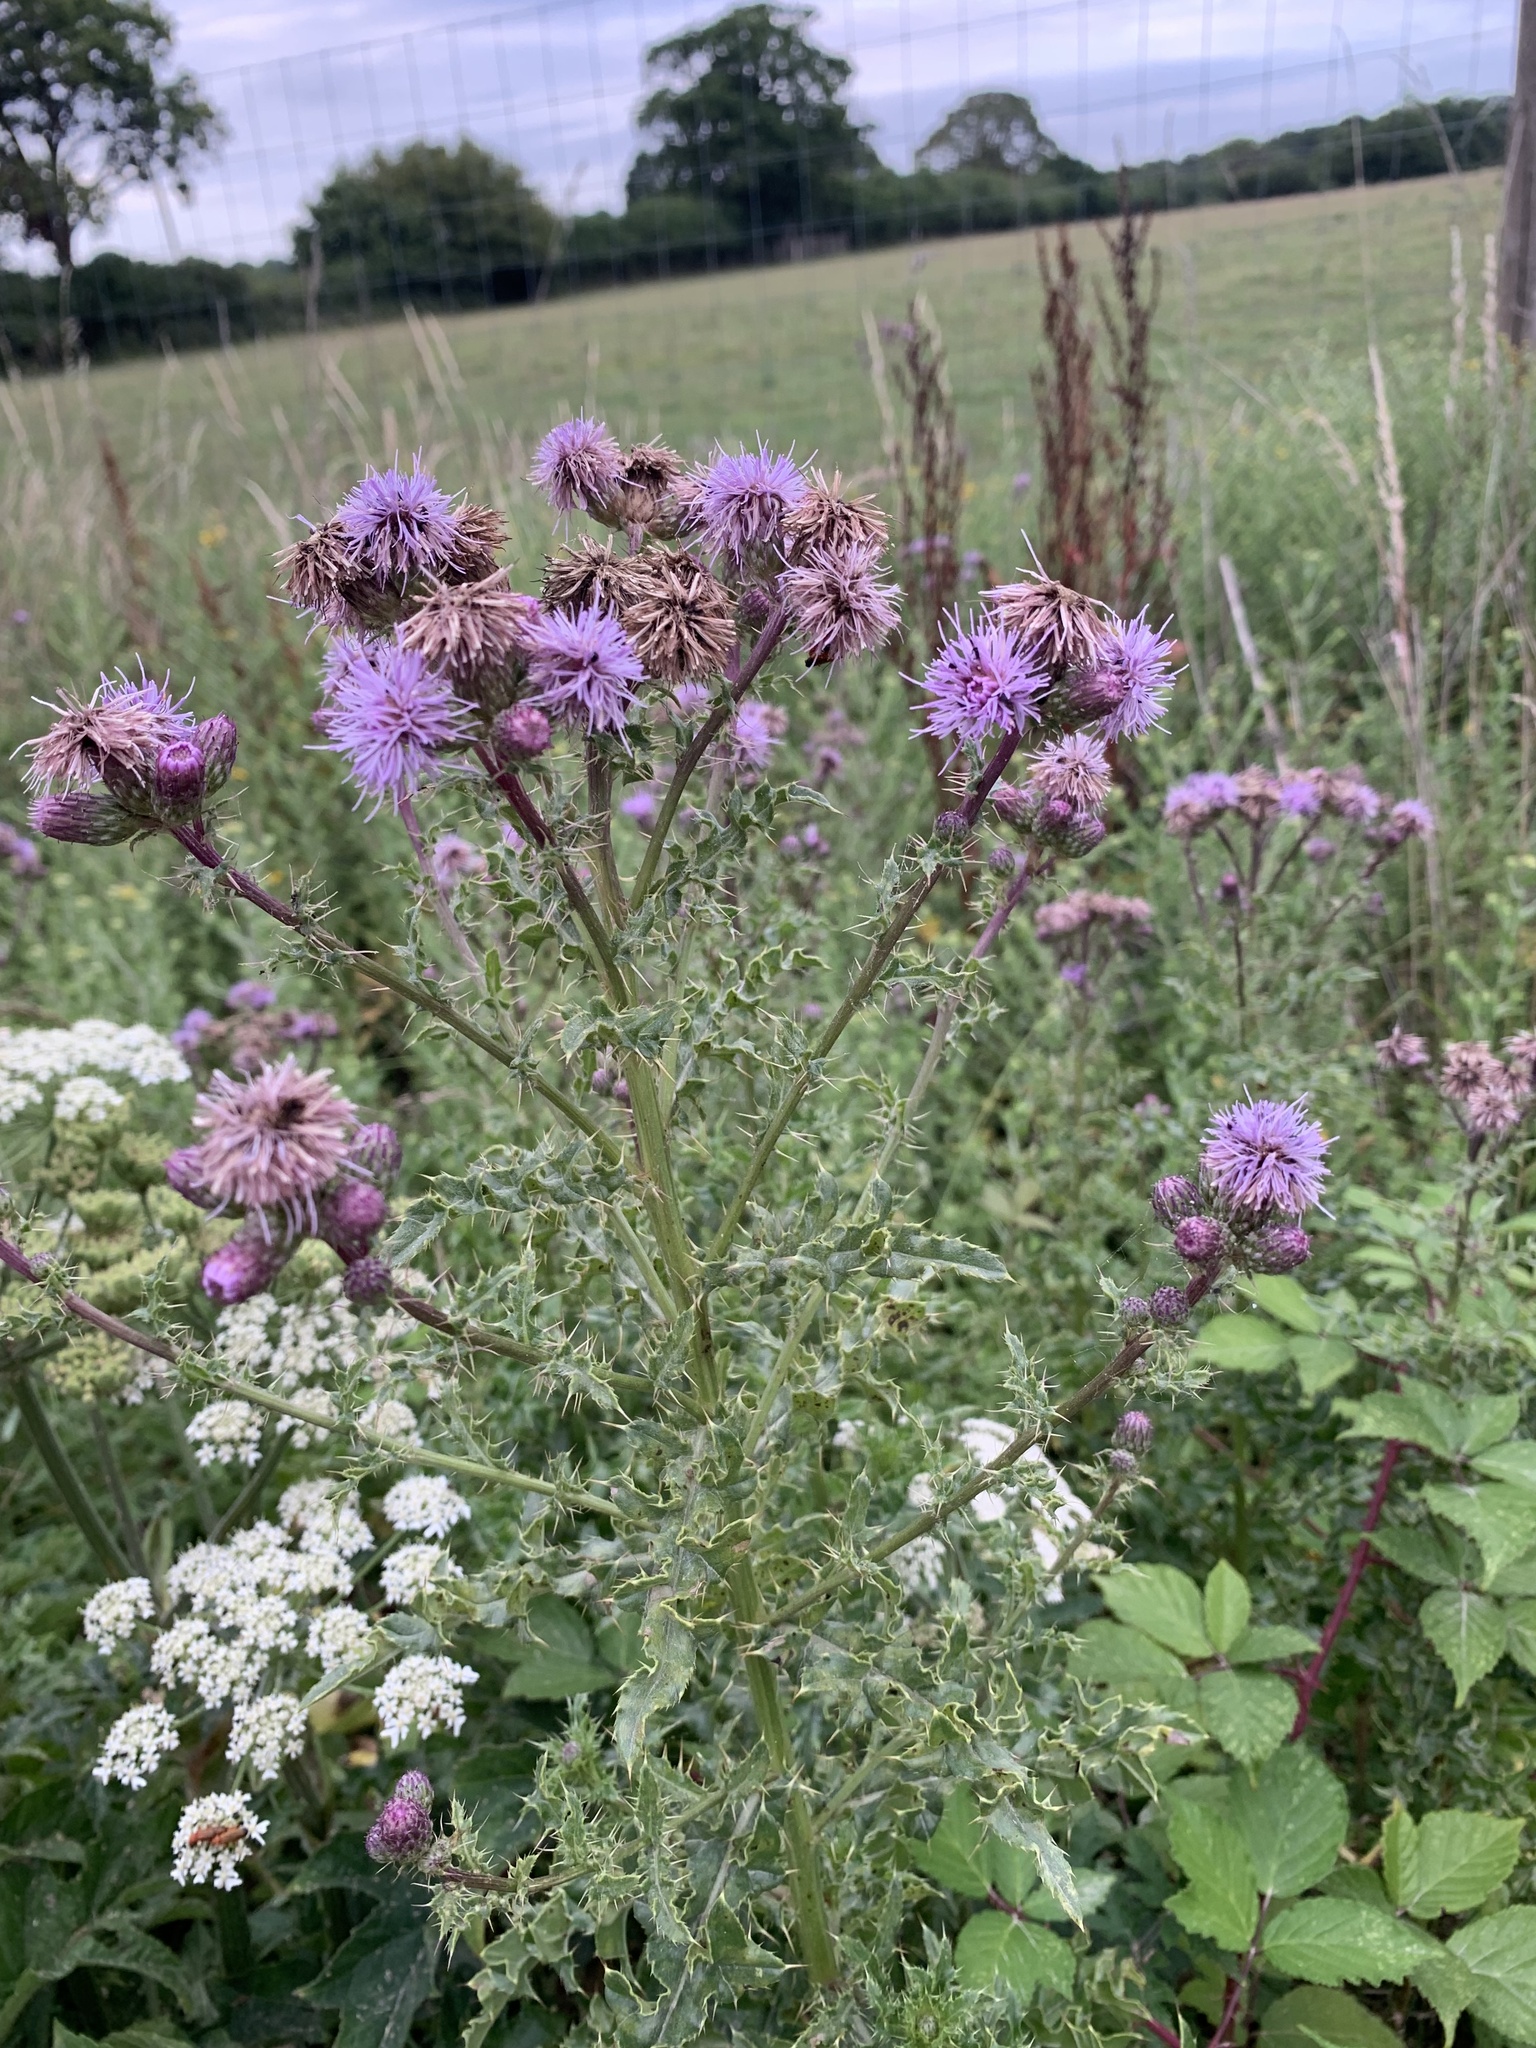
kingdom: Plantae
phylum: Tracheophyta
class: Magnoliopsida
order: Asterales
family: Asteraceae
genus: Cirsium
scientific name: Cirsium arvense
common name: Creeping thistle
